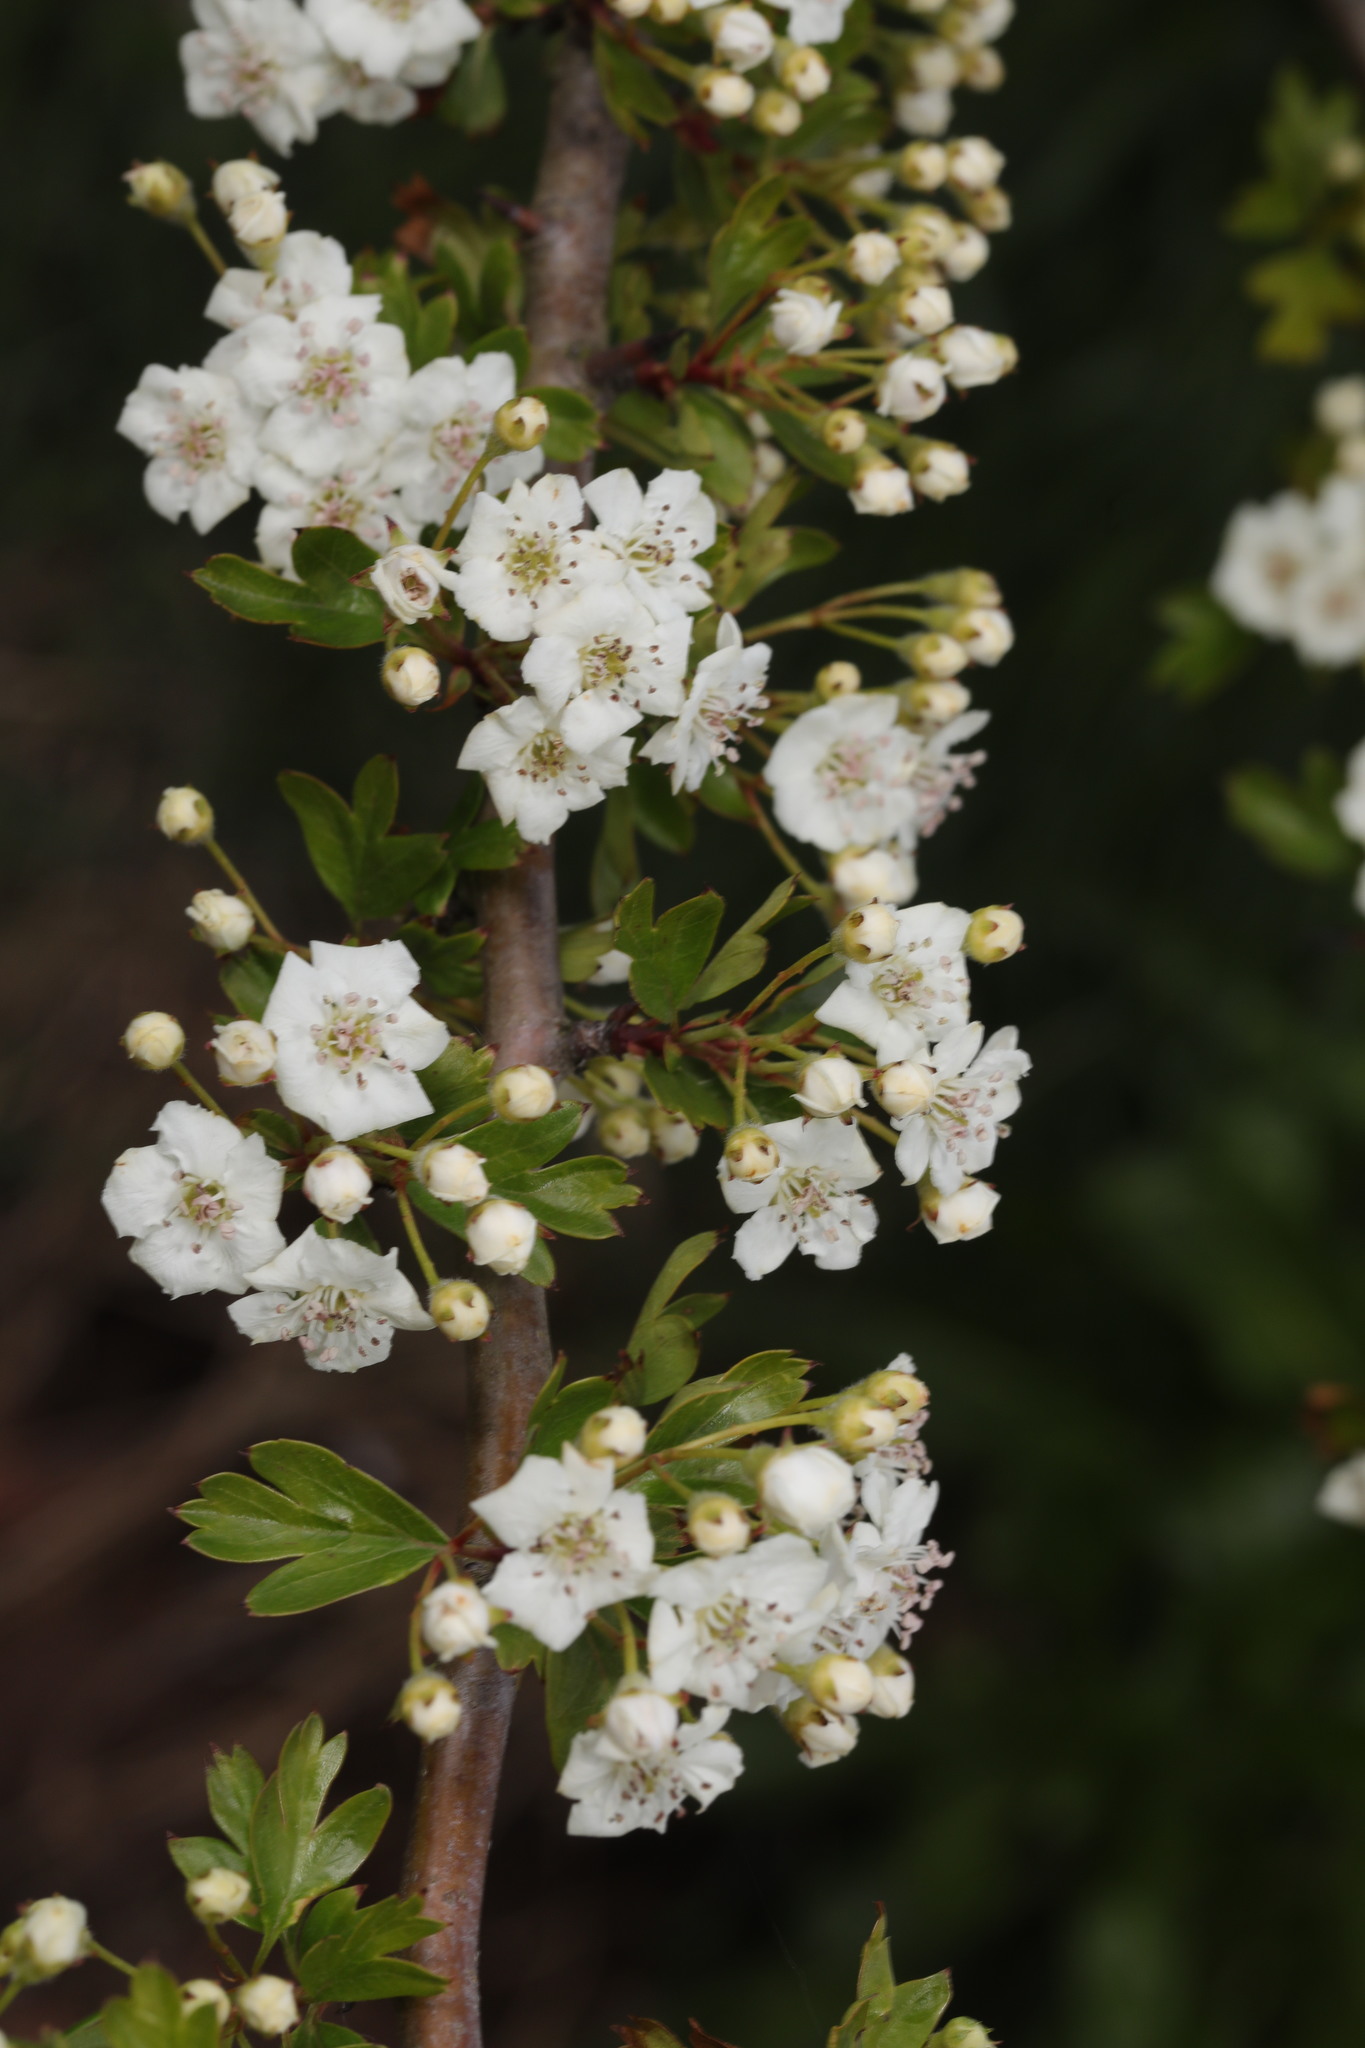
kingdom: Plantae
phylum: Tracheophyta
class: Magnoliopsida
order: Rosales
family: Rosaceae
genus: Crataegus
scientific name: Crataegus monogyna
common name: Hawthorn
